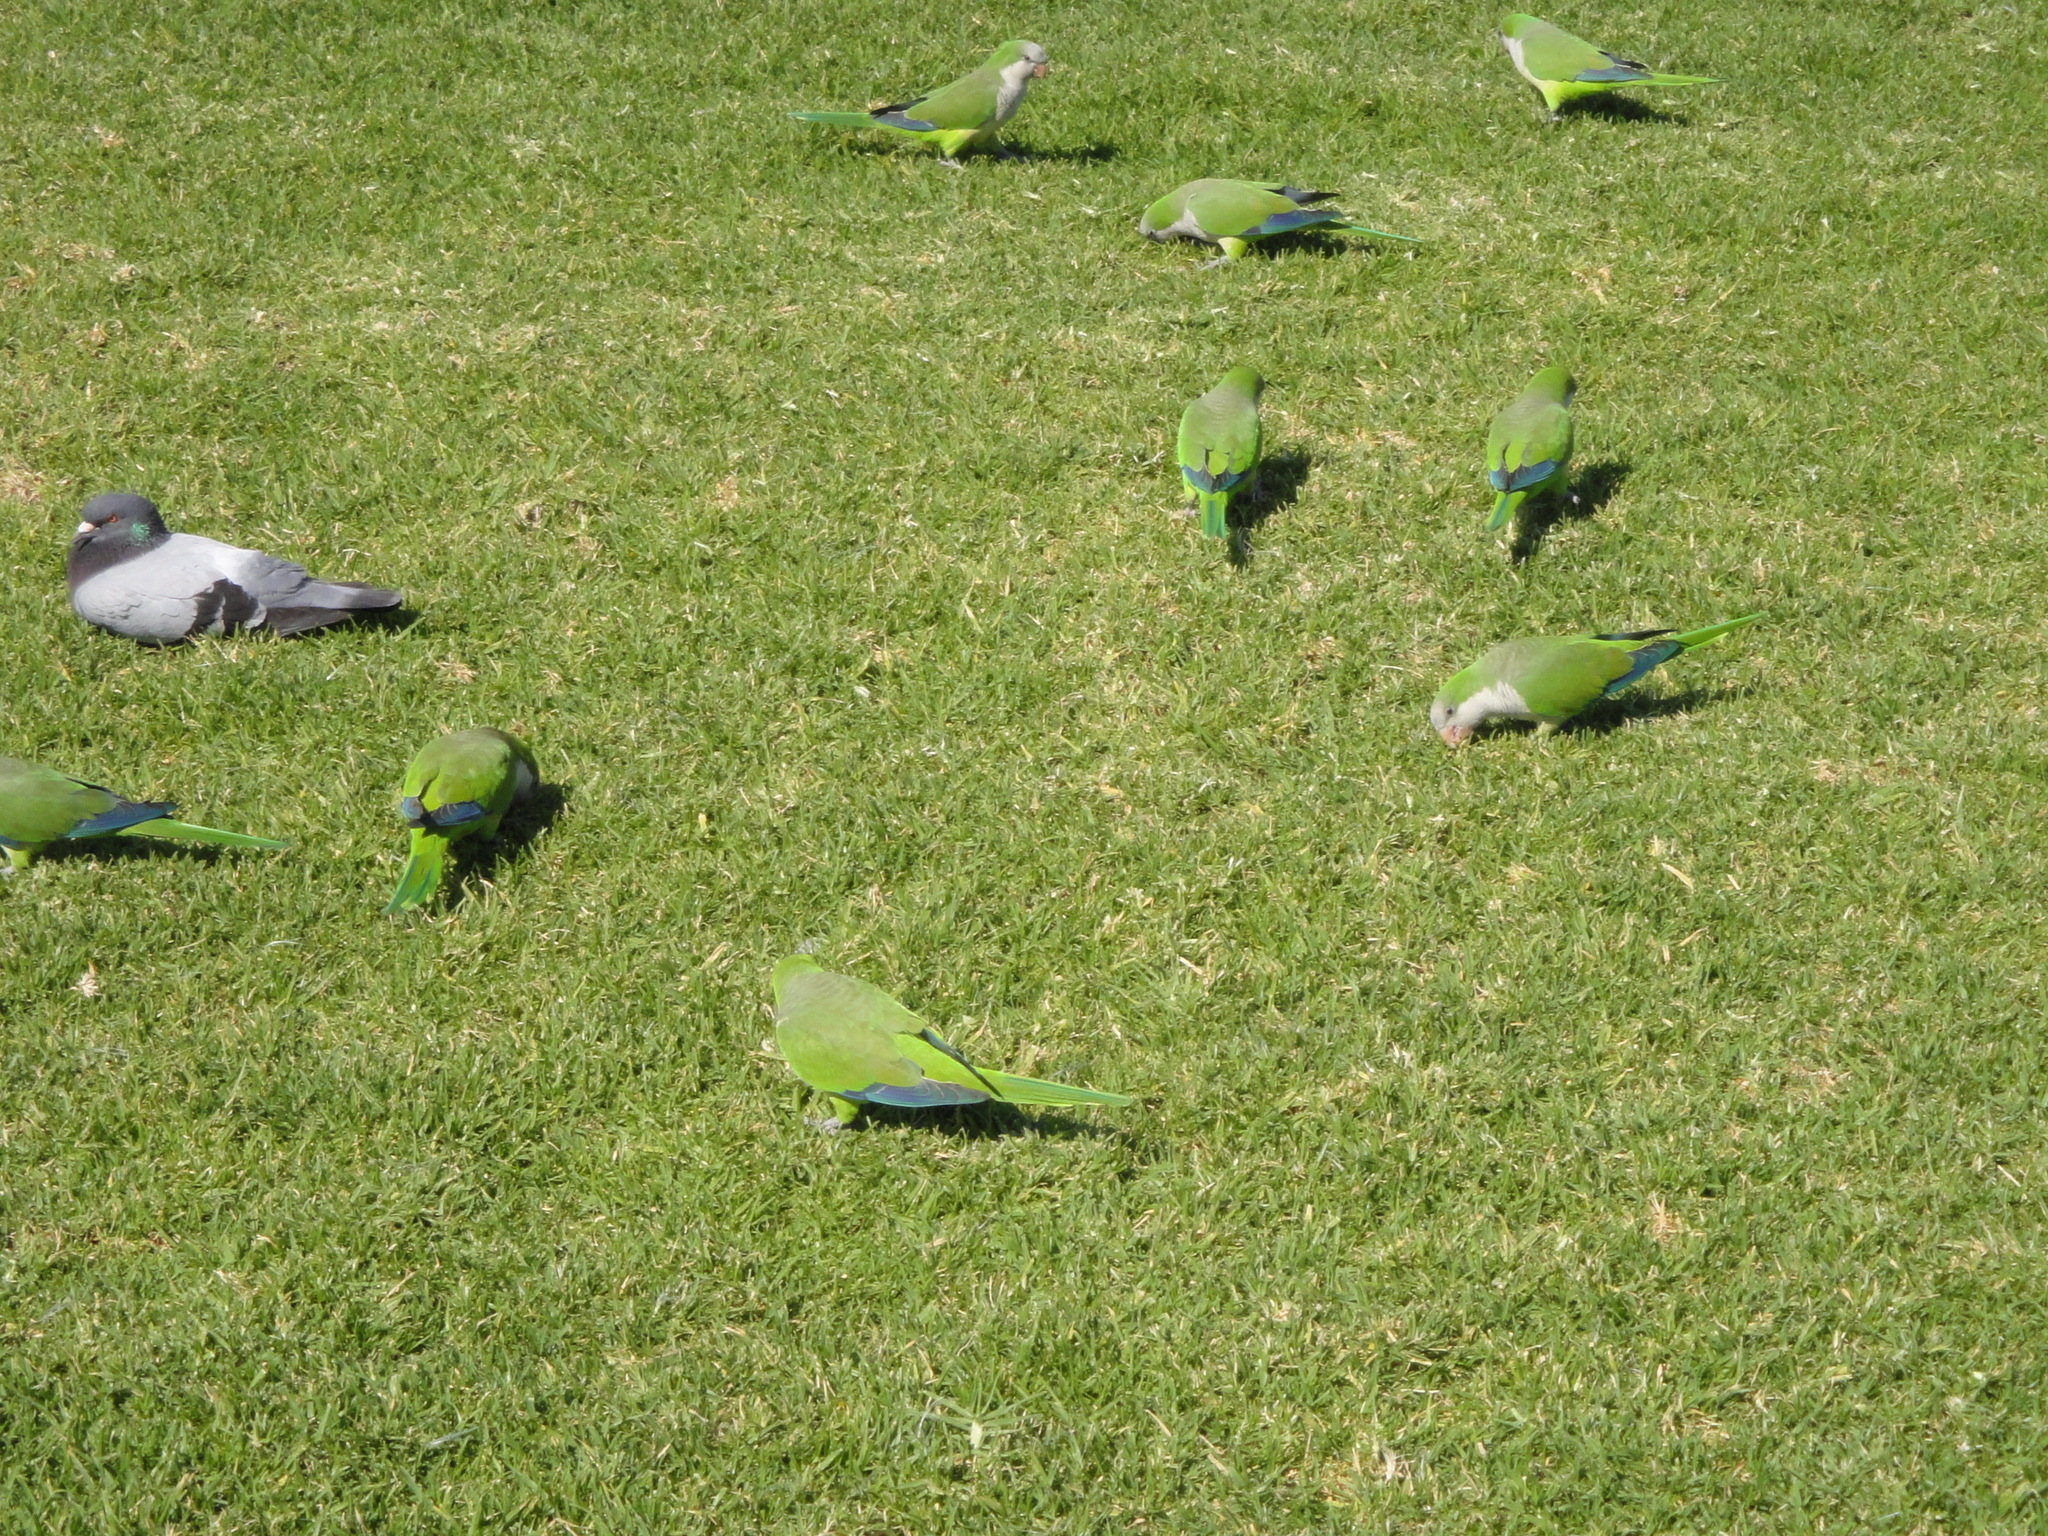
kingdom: Animalia
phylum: Chordata
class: Aves
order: Psittaciformes
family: Psittacidae
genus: Myiopsitta
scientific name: Myiopsitta monachus
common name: Monk parakeet
